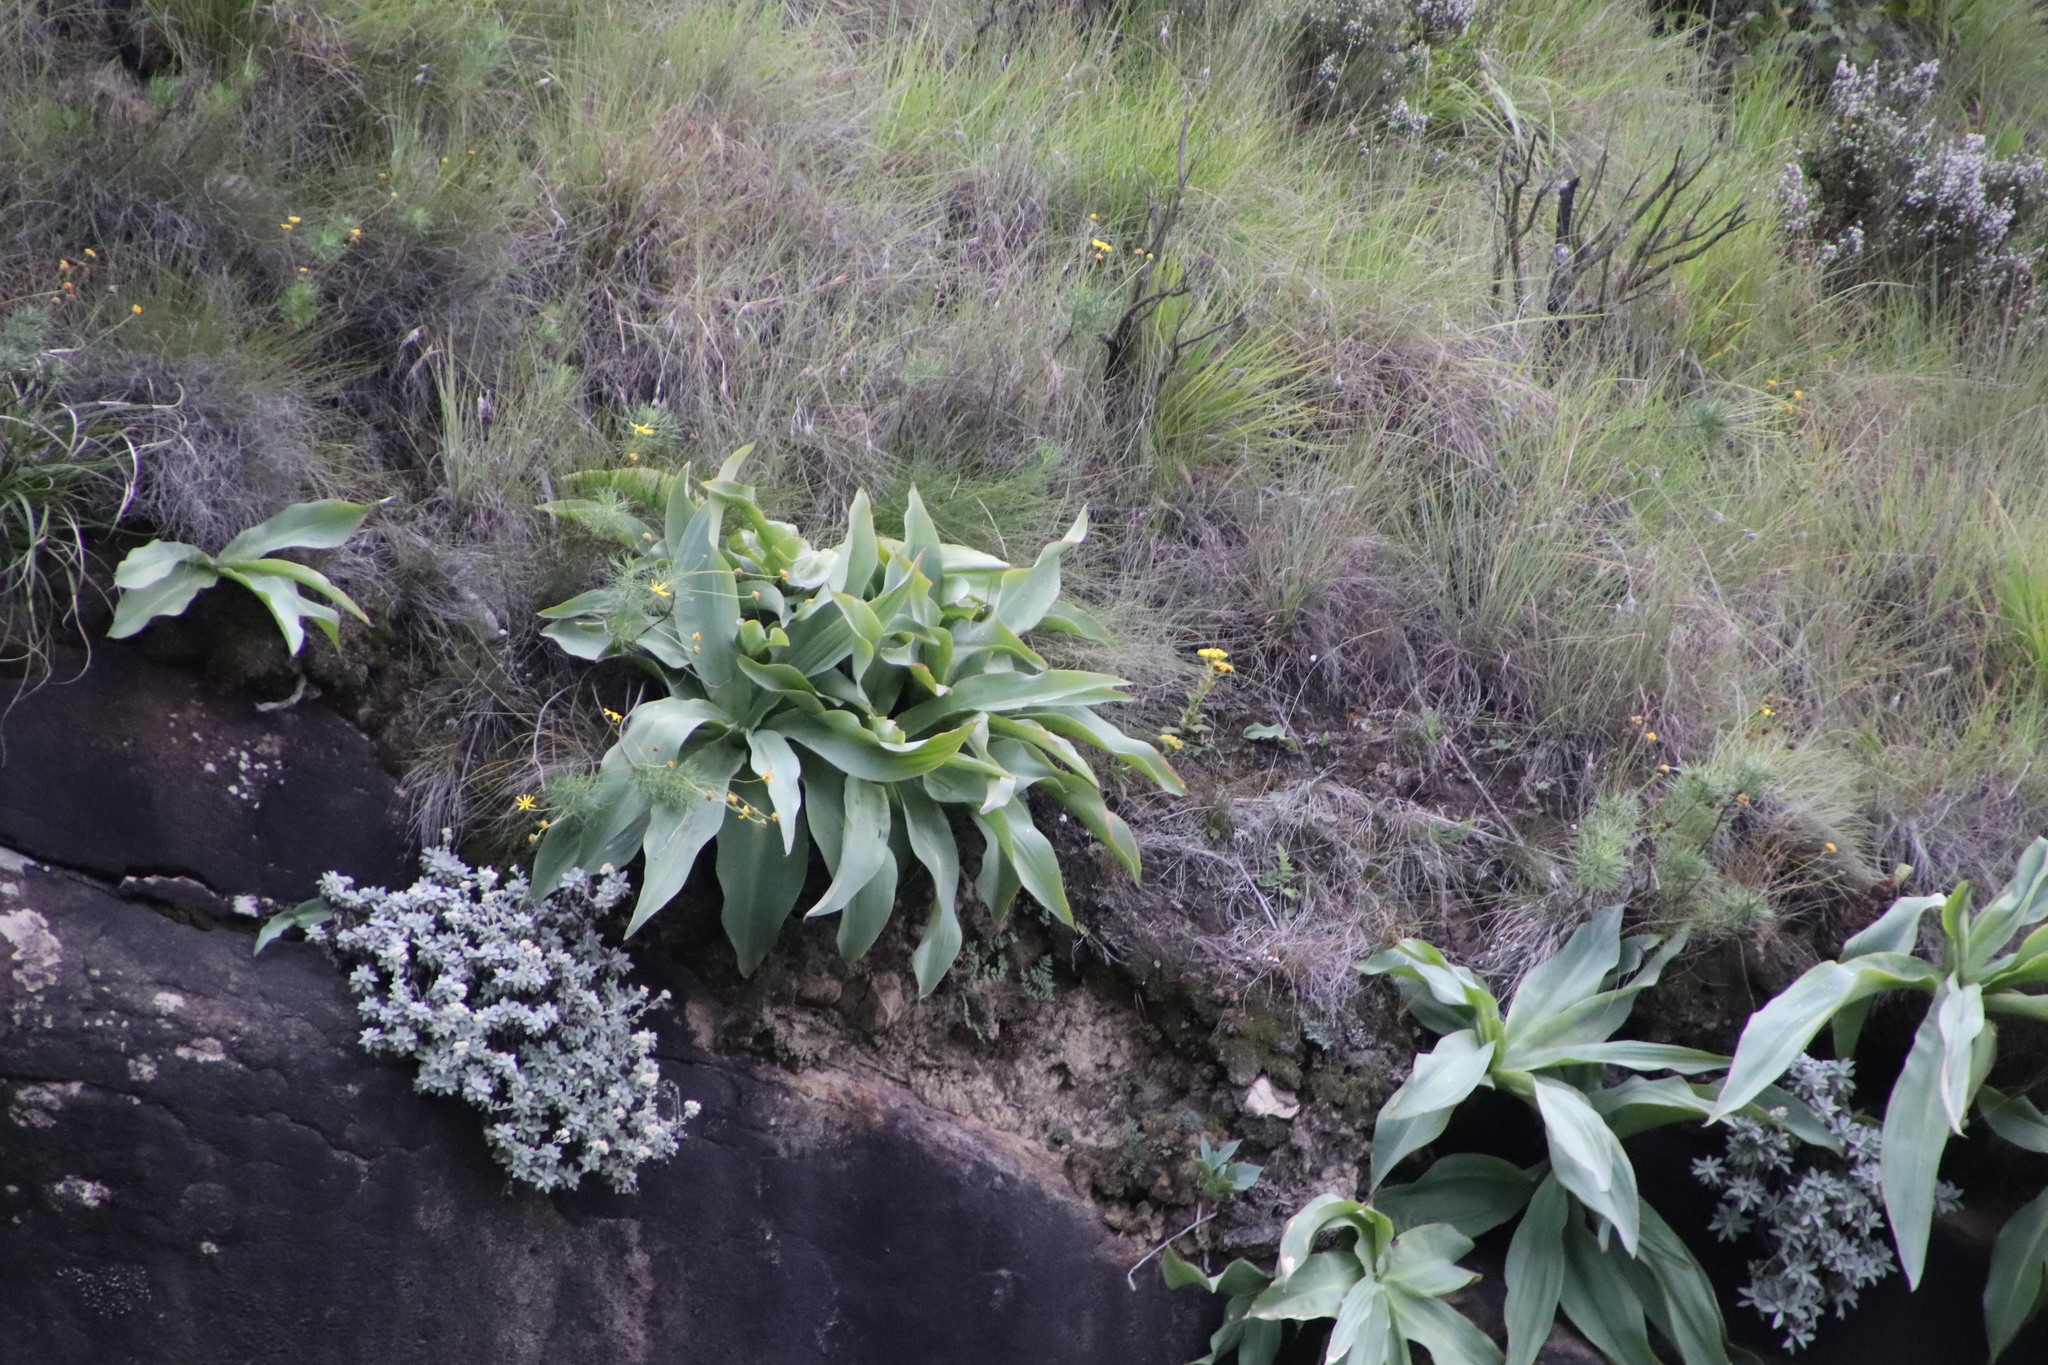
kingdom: Plantae
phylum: Tracheophyta
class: Liliopsida
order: Asparagales
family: Asparagaceae
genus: Merwilla
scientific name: Merwilla plumbea
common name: Blue-squill
